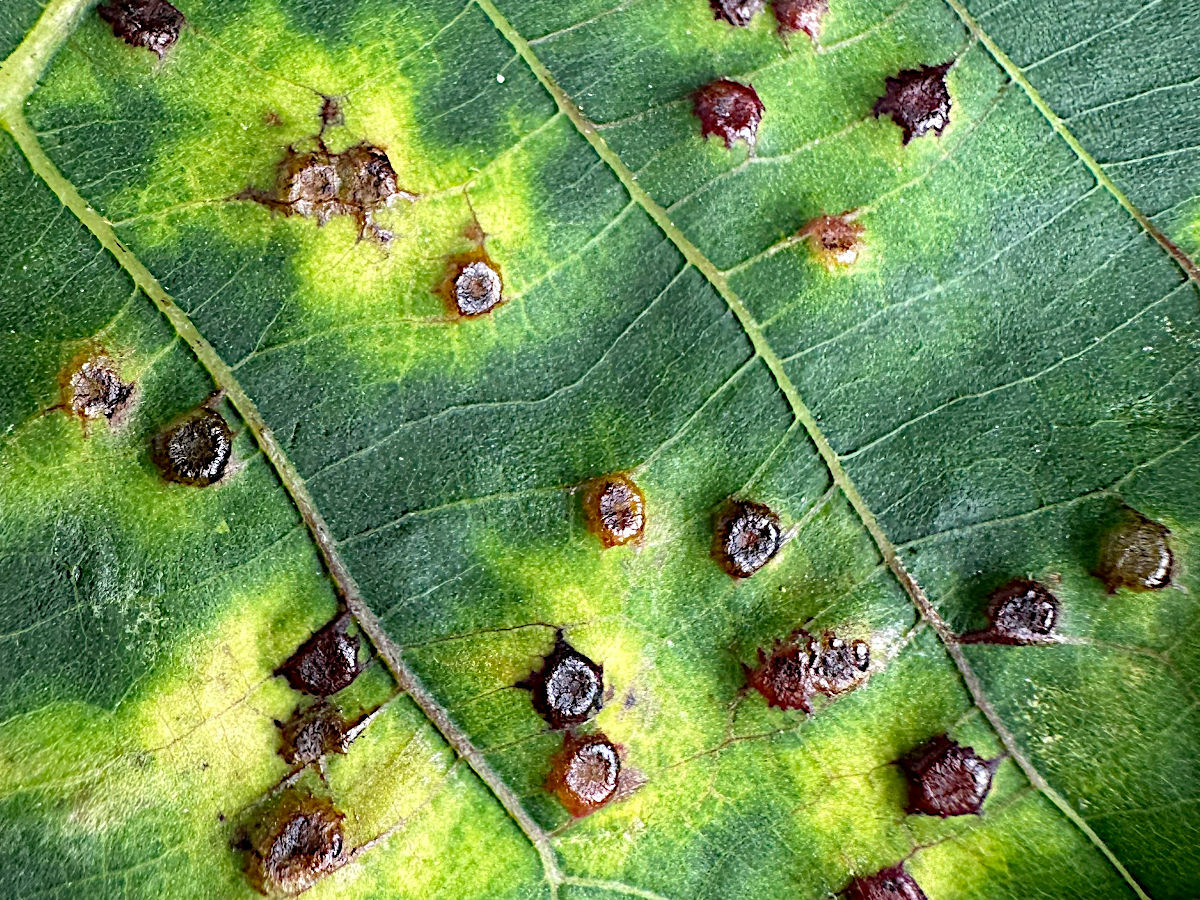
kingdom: Animalia
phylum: Arthropoda
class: Insecta
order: Diptera
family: Cecidomyiidae
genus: Caryomyia
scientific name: Caryomyia echinata
